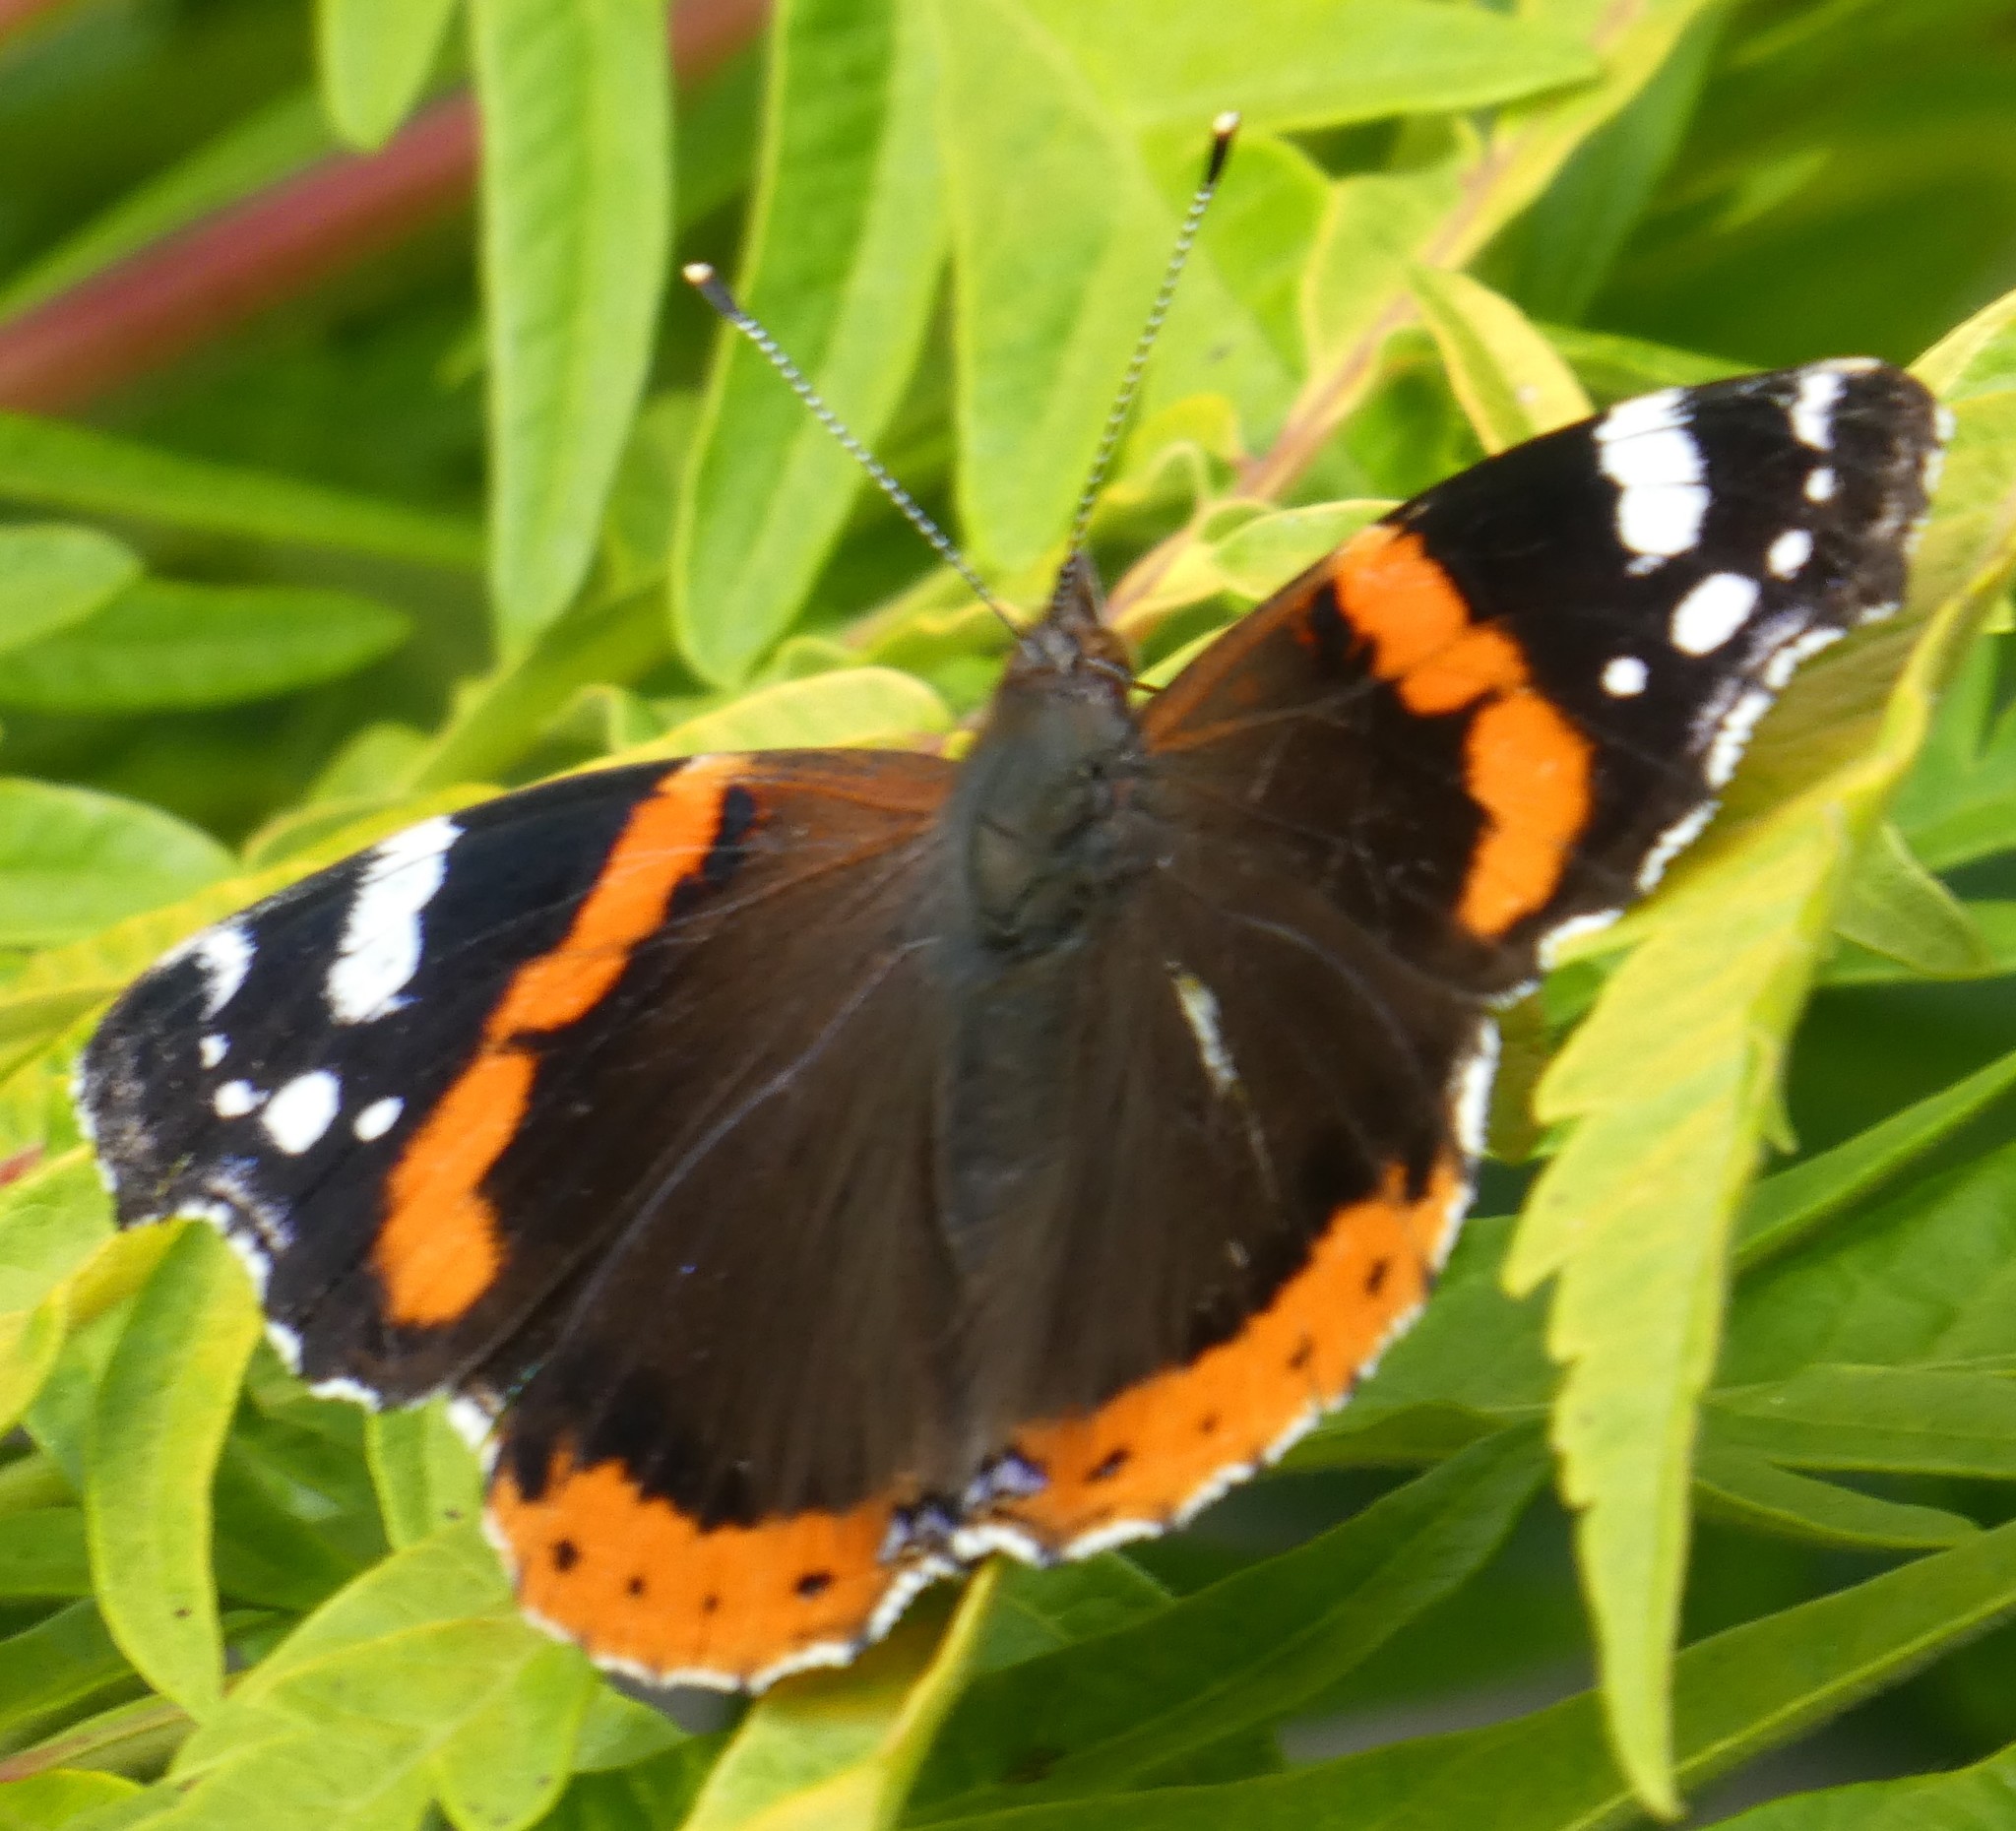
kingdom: Animalia
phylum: Arthropoda
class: Insecta
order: Lepidoptera
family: Nymphalidae
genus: Vanessa
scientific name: Vanessa atalanta
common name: Red admiral
